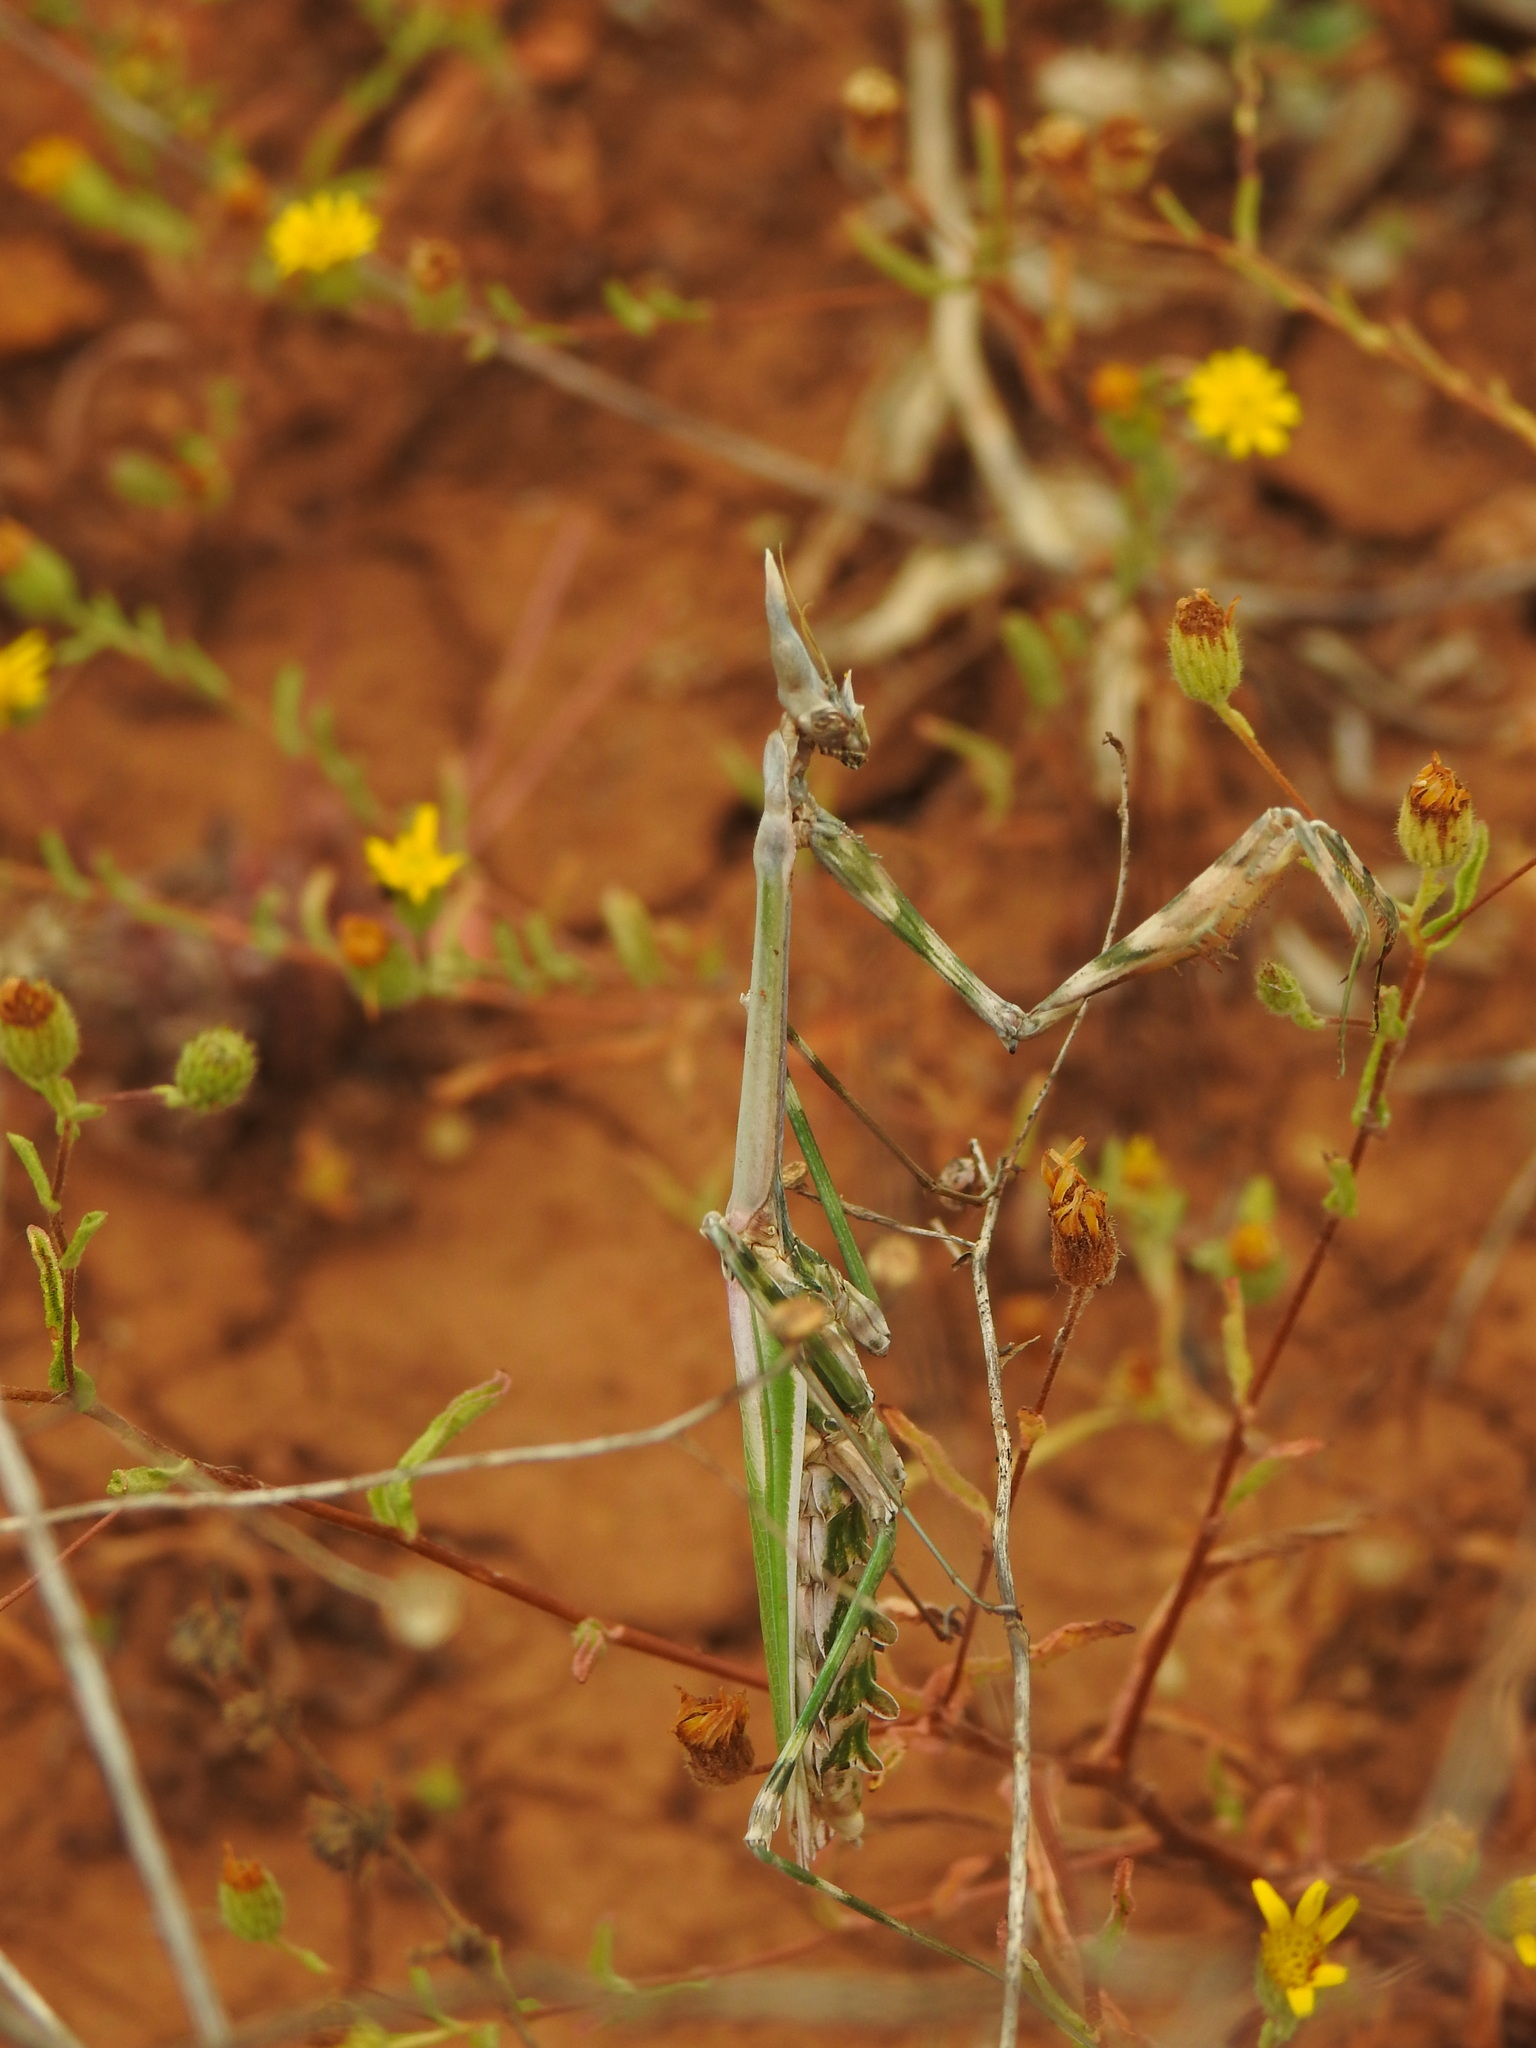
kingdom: Animalia
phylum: Arthropoda
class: Insecta
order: Mantodea
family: Empusidae
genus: Empusa
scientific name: Empusa pennata
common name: Conehead mantis
